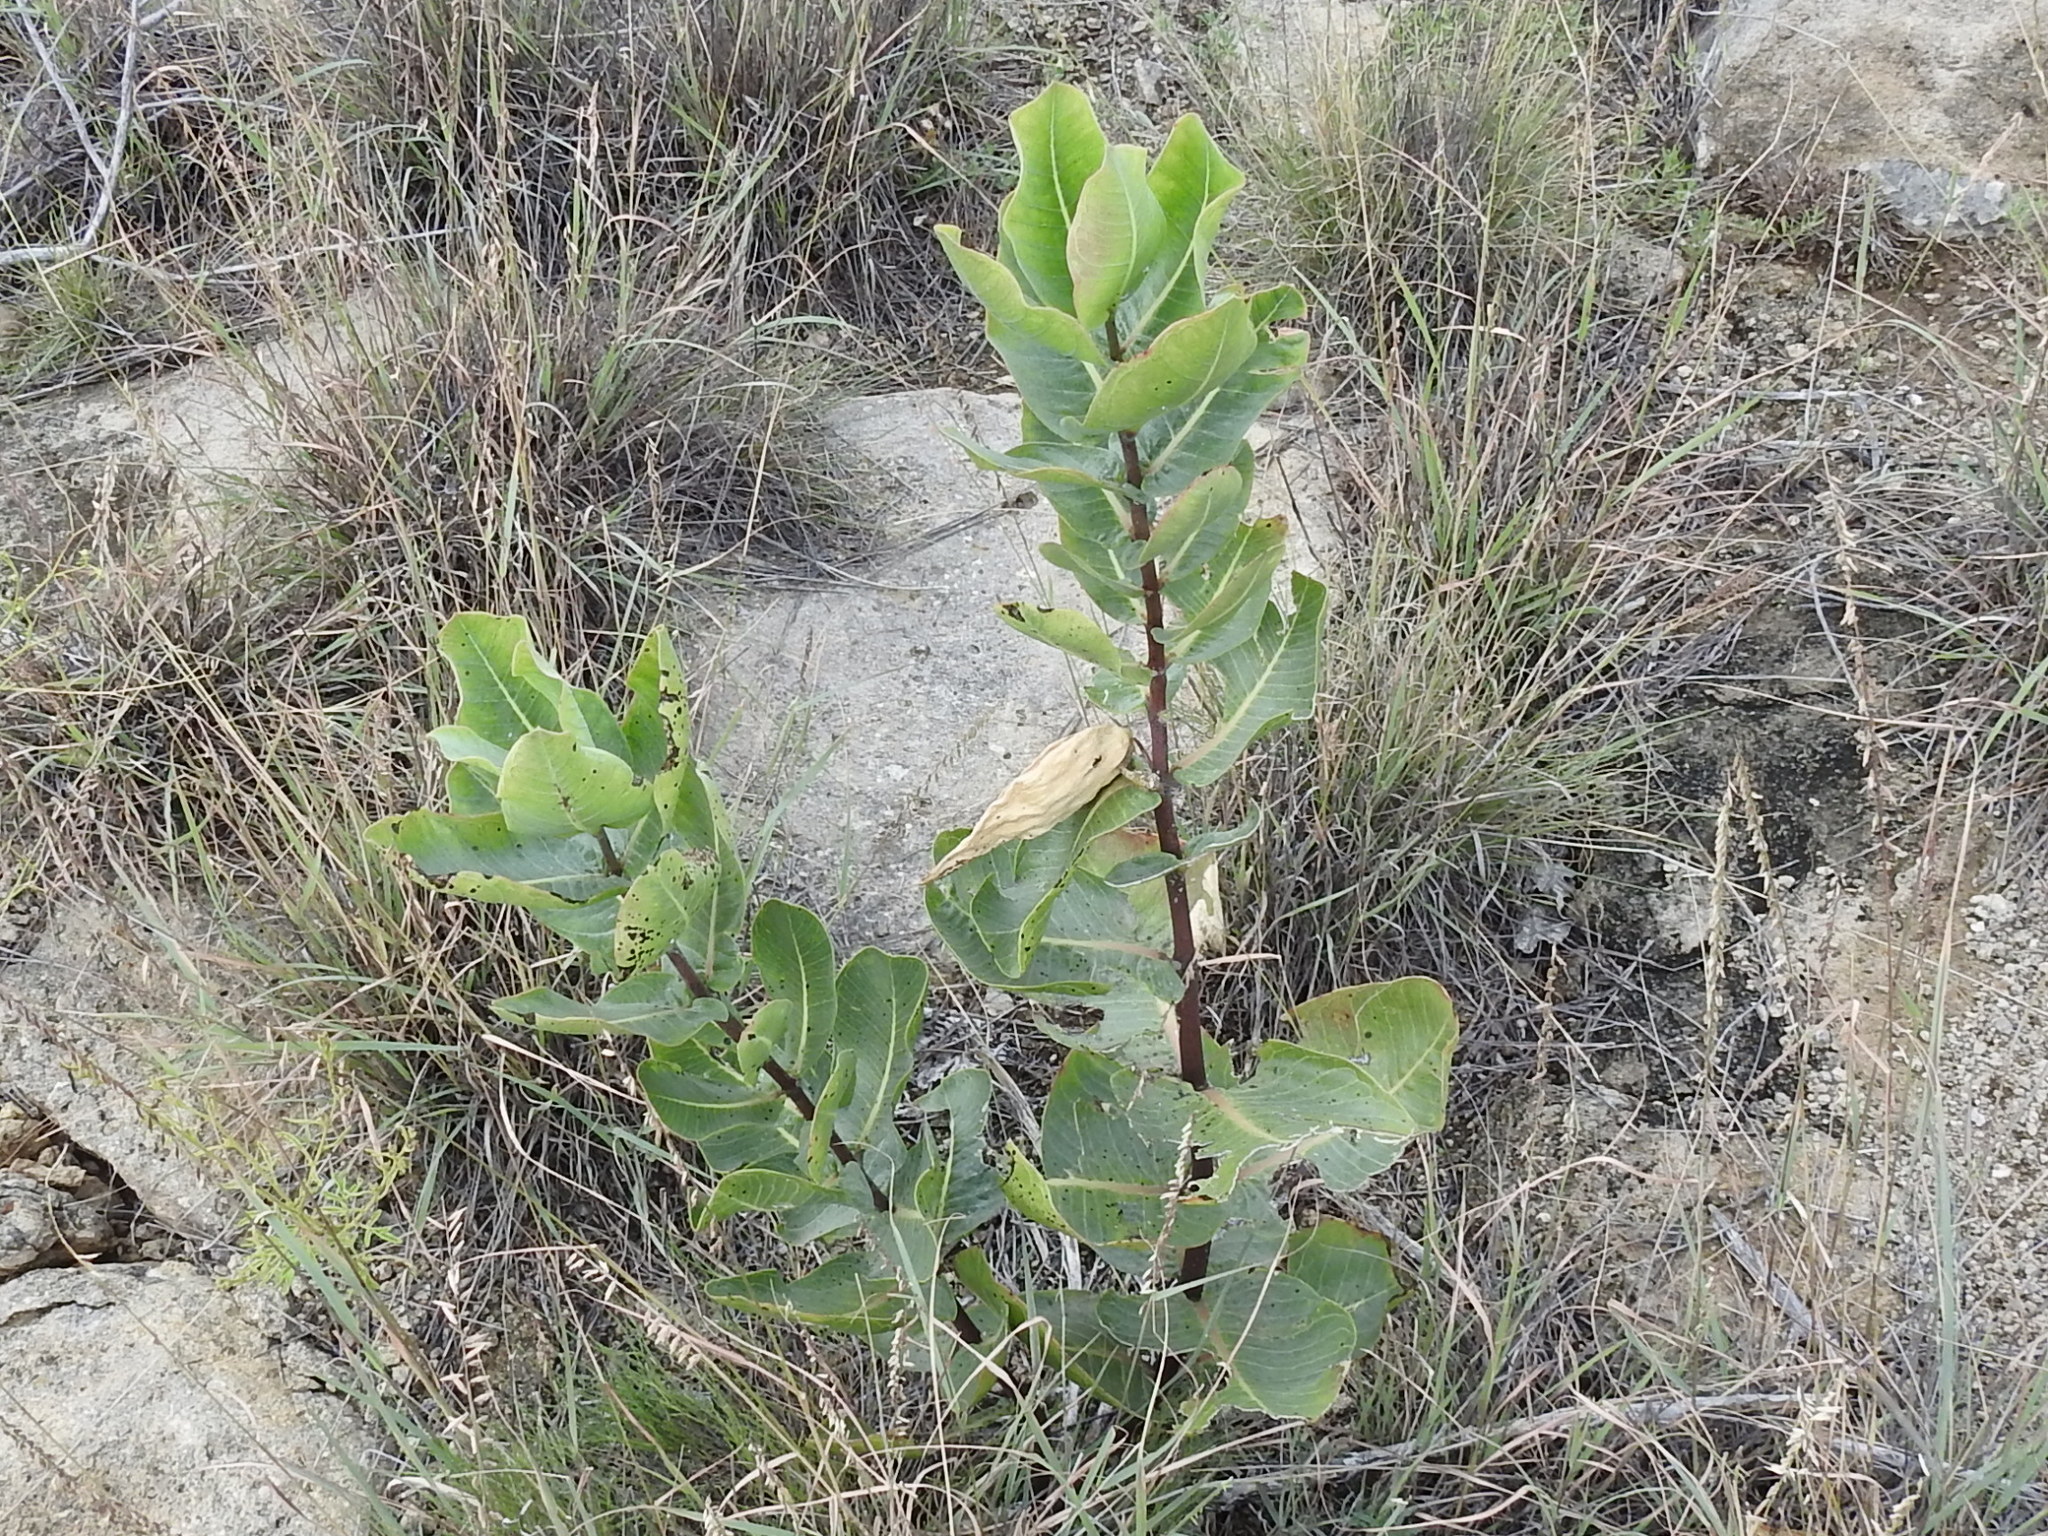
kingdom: Plantae
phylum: Tracheophyta
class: Magnoliopsida
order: Gentianales
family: Apocynaceae
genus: Asclepias
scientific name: Asclepias latifolia
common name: Broadleaf milkweed
